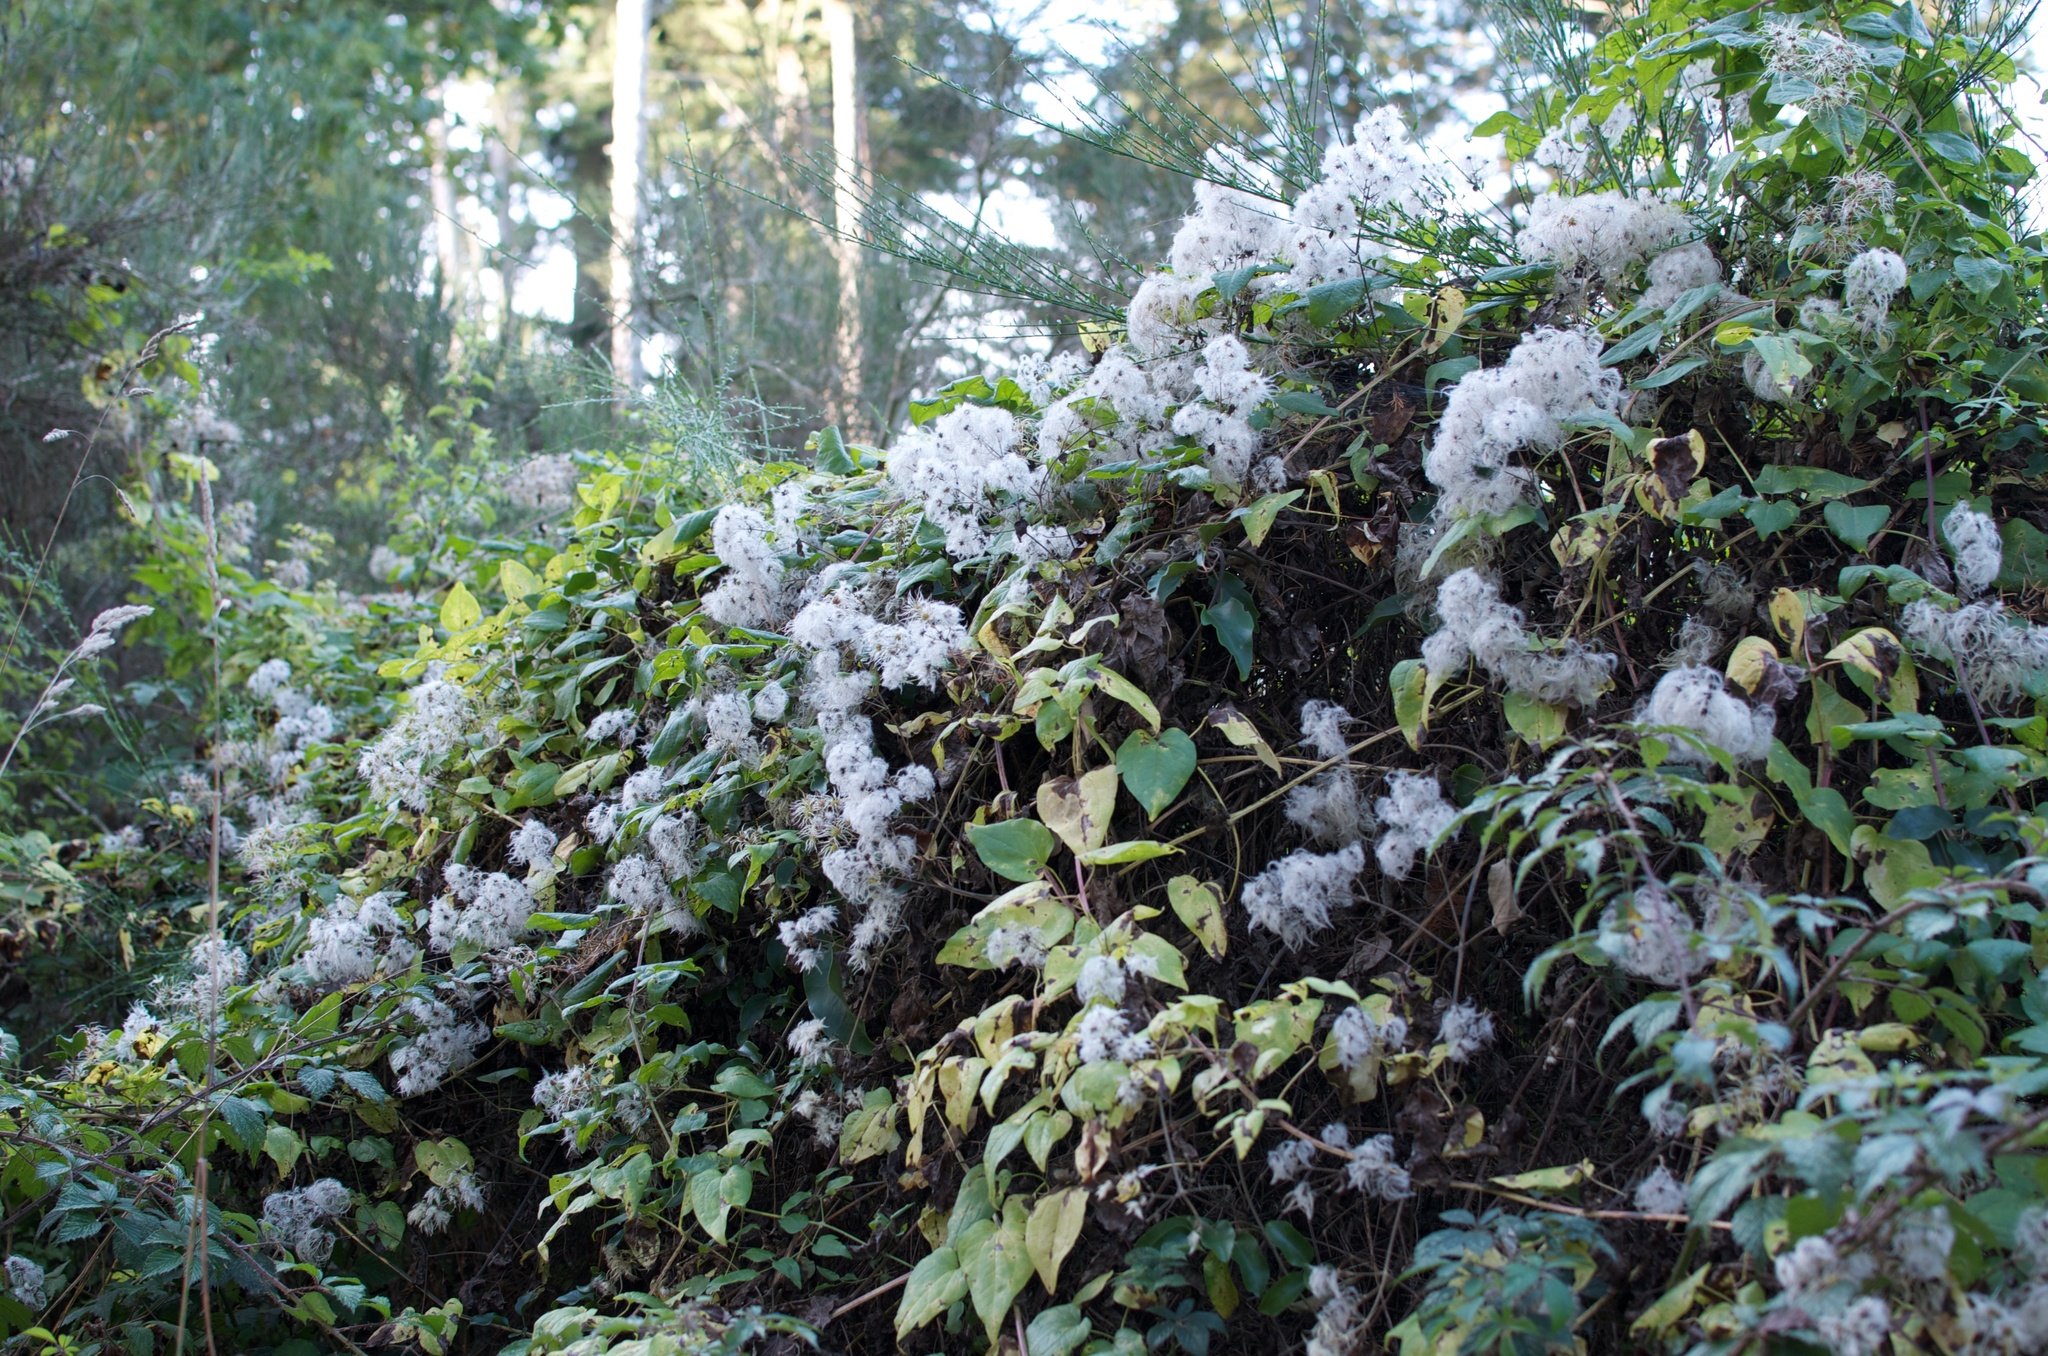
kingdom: Plantae
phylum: Tracheophyta
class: Magnoliopsida
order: Ranunculales
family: Ranunculaceae
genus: Clematis
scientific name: Clematis vitalba
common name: Evergreen clematis
